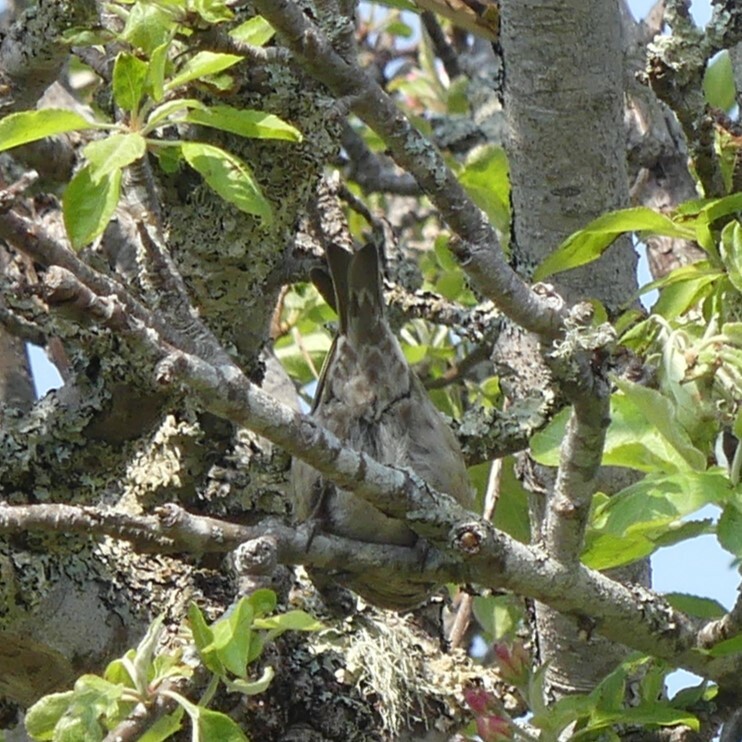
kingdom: Animalia
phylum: Chordata
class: Aves
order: Passeriformes
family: Fringillidae
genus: Loxia
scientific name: Loxia curvirostra
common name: Red crossbill
